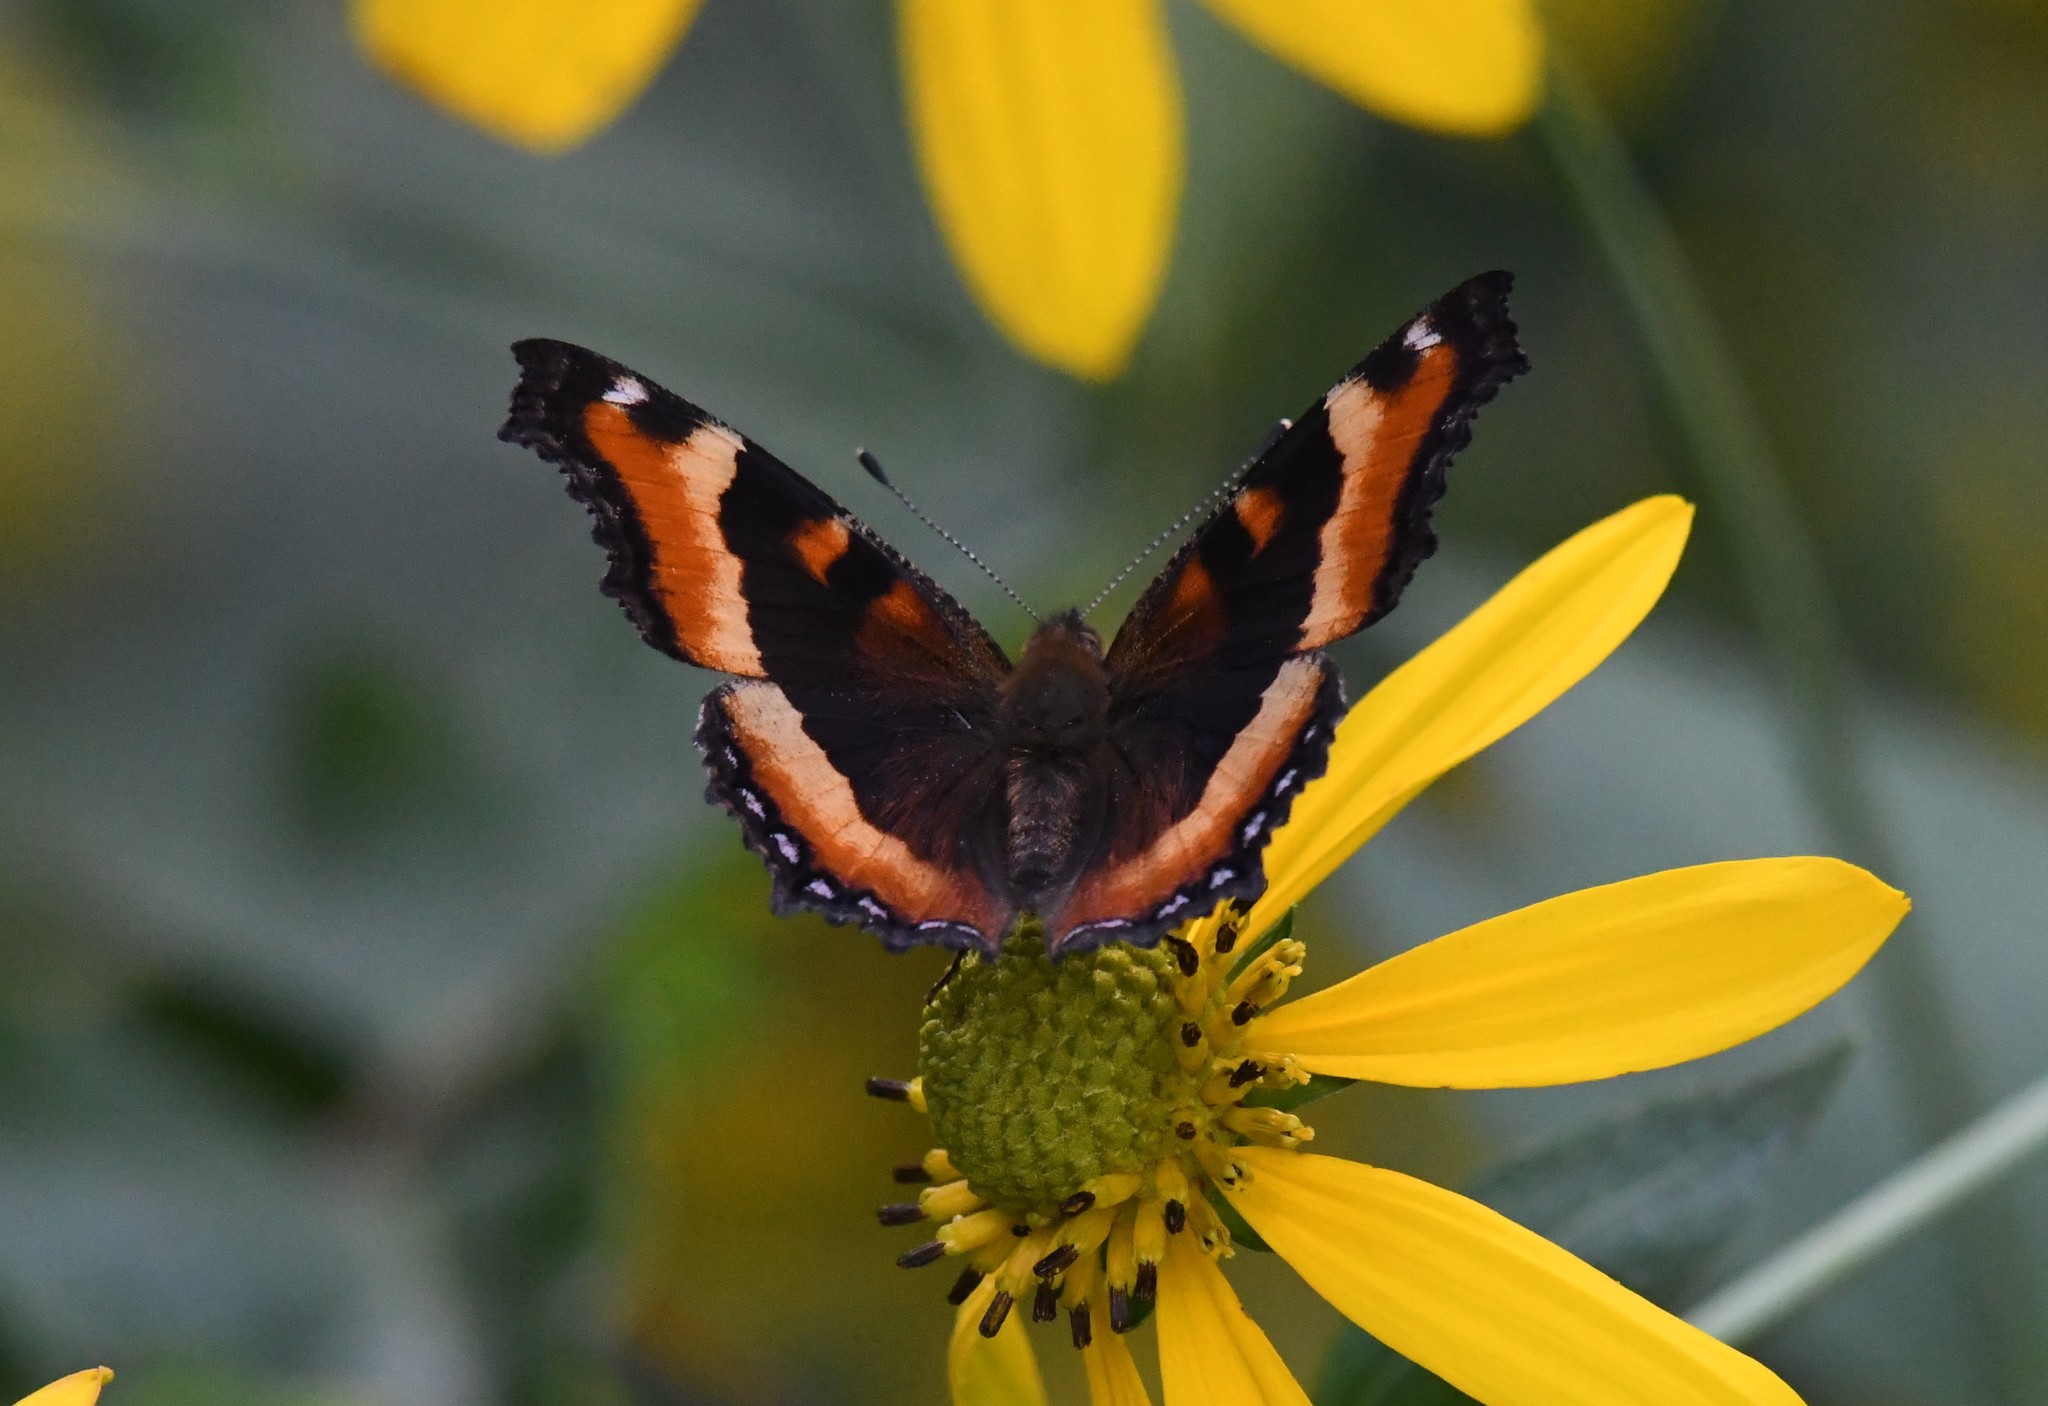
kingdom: Animalia
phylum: Arthropoda
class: Insecta
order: Lepidoptera
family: Nymphalidae
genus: Aglais
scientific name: Aglais milberti
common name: Milbert's tortoiseshell
